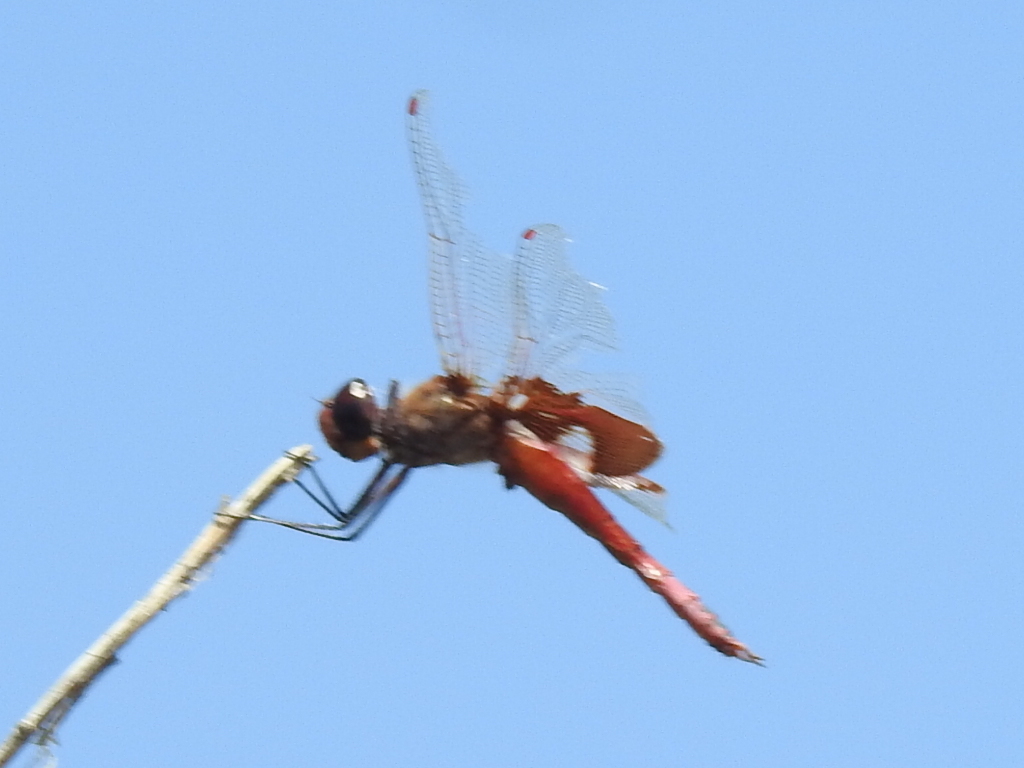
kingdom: Animalia
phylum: Arthropoda
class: Insecta
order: Odonata
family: Libellulidae
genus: Tramea
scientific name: Tramea onusta
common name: Red saddlebags
